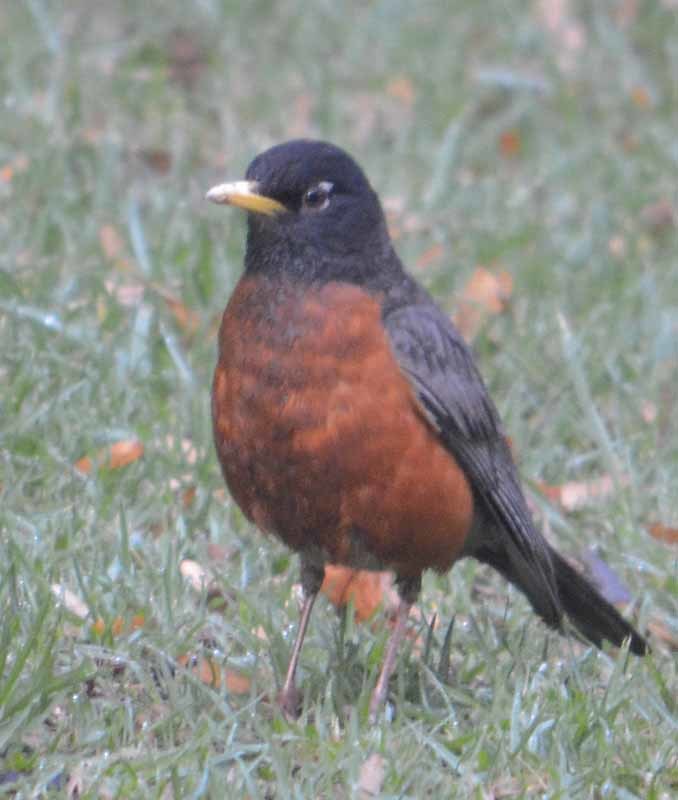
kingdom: Animalia
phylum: Chordata
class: Aves
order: Passeriformes
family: Turdidae
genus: Turdus
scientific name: Turdus migratorius
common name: American robin
